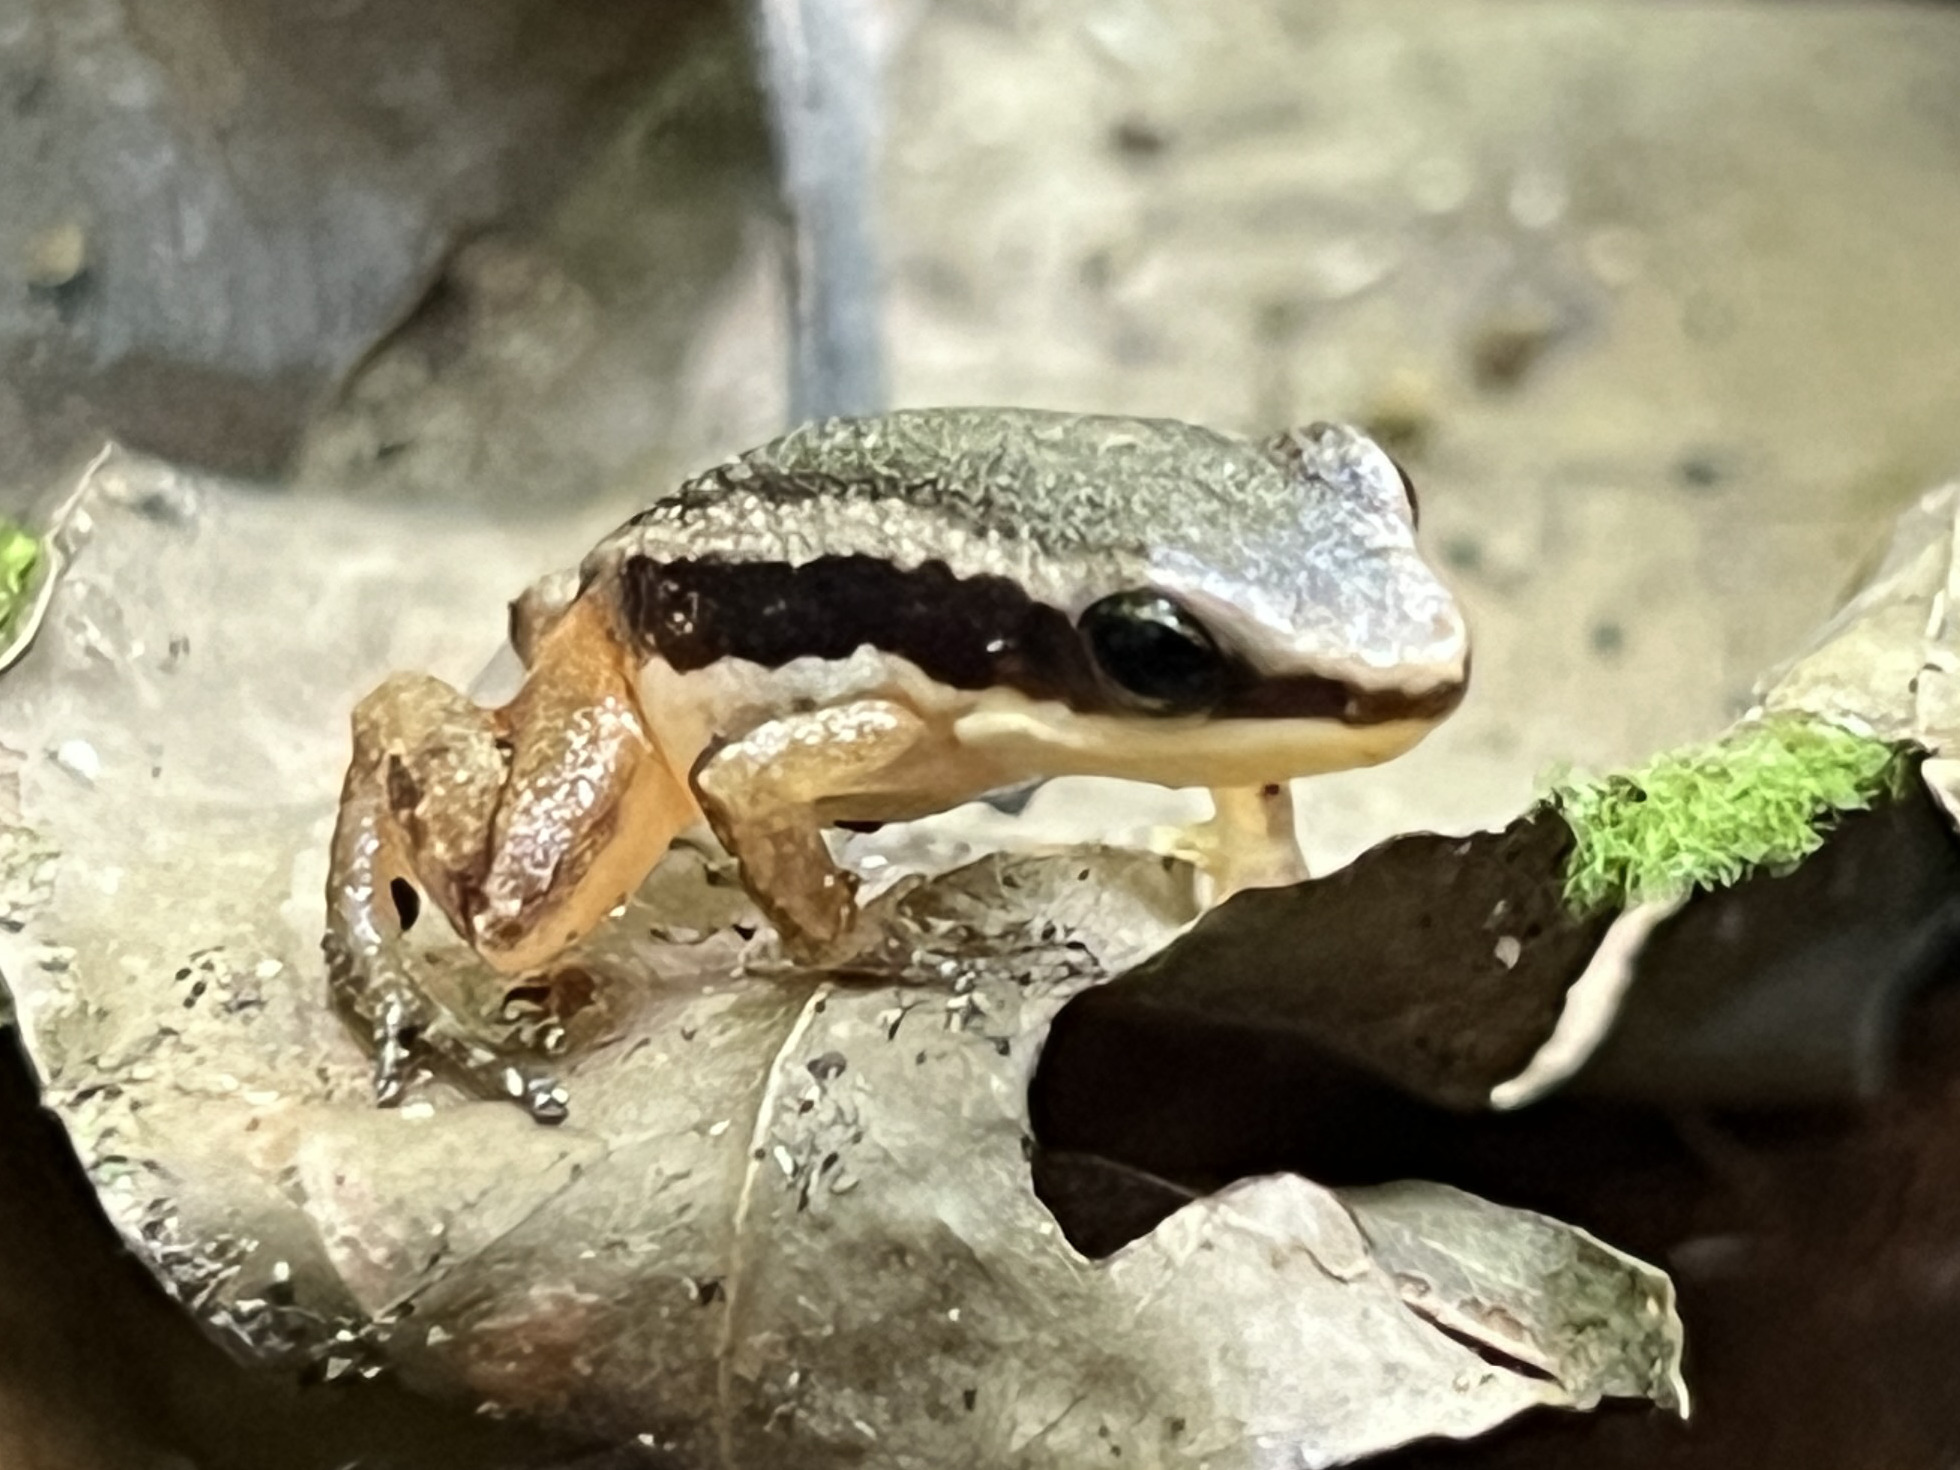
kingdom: Animalia
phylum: Chordata
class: Amphibia
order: Anura
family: Dendrobatidae
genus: Silverstoneia
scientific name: Silverstoneia flotator
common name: Rainforest rocket frog
